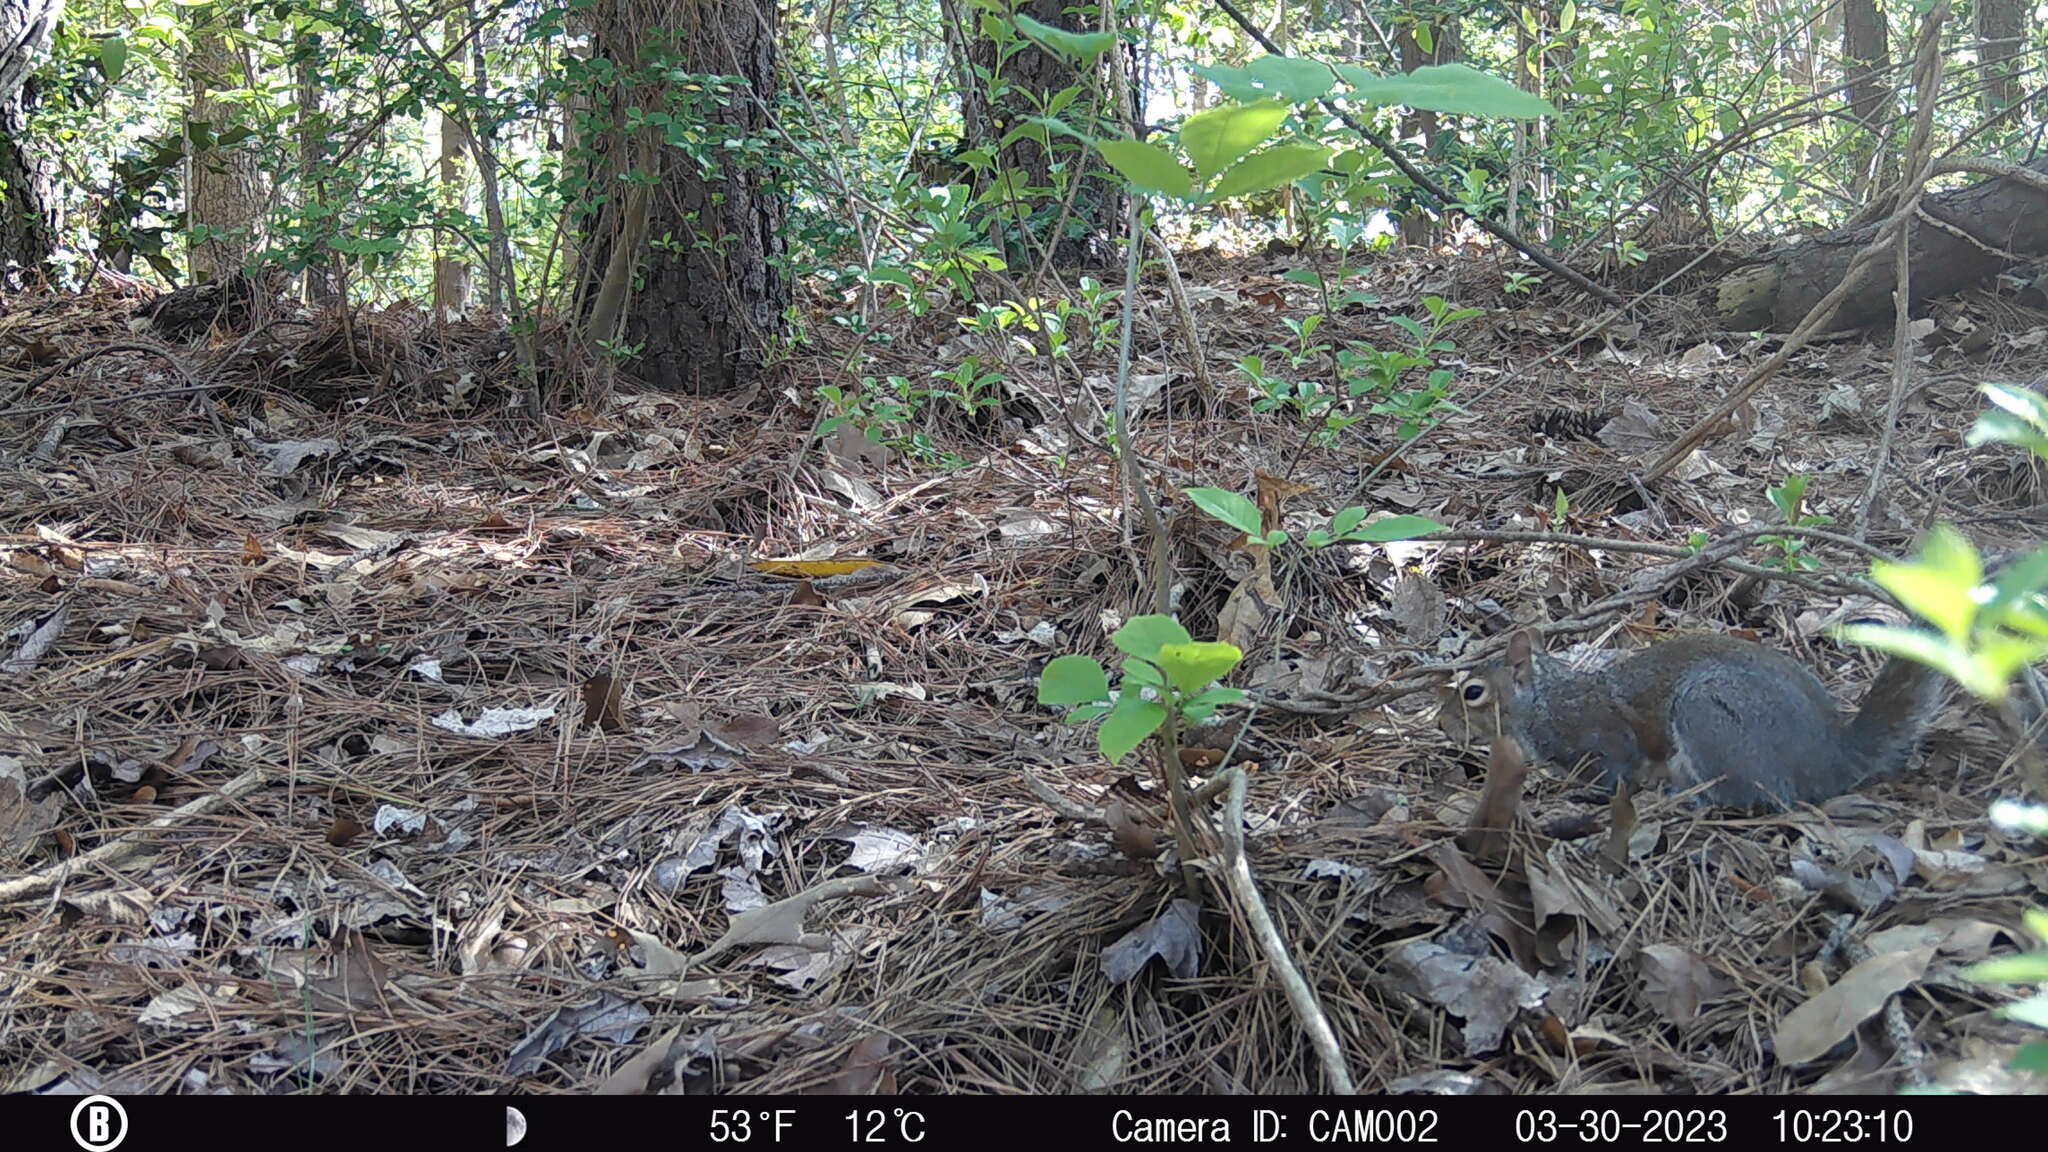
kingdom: Animalia
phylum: Chordata
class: Mammalia
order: Rodentia
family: Sciuridae
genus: Sciurus
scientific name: Sciurus carolinensis
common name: Eastern gray squirrel
